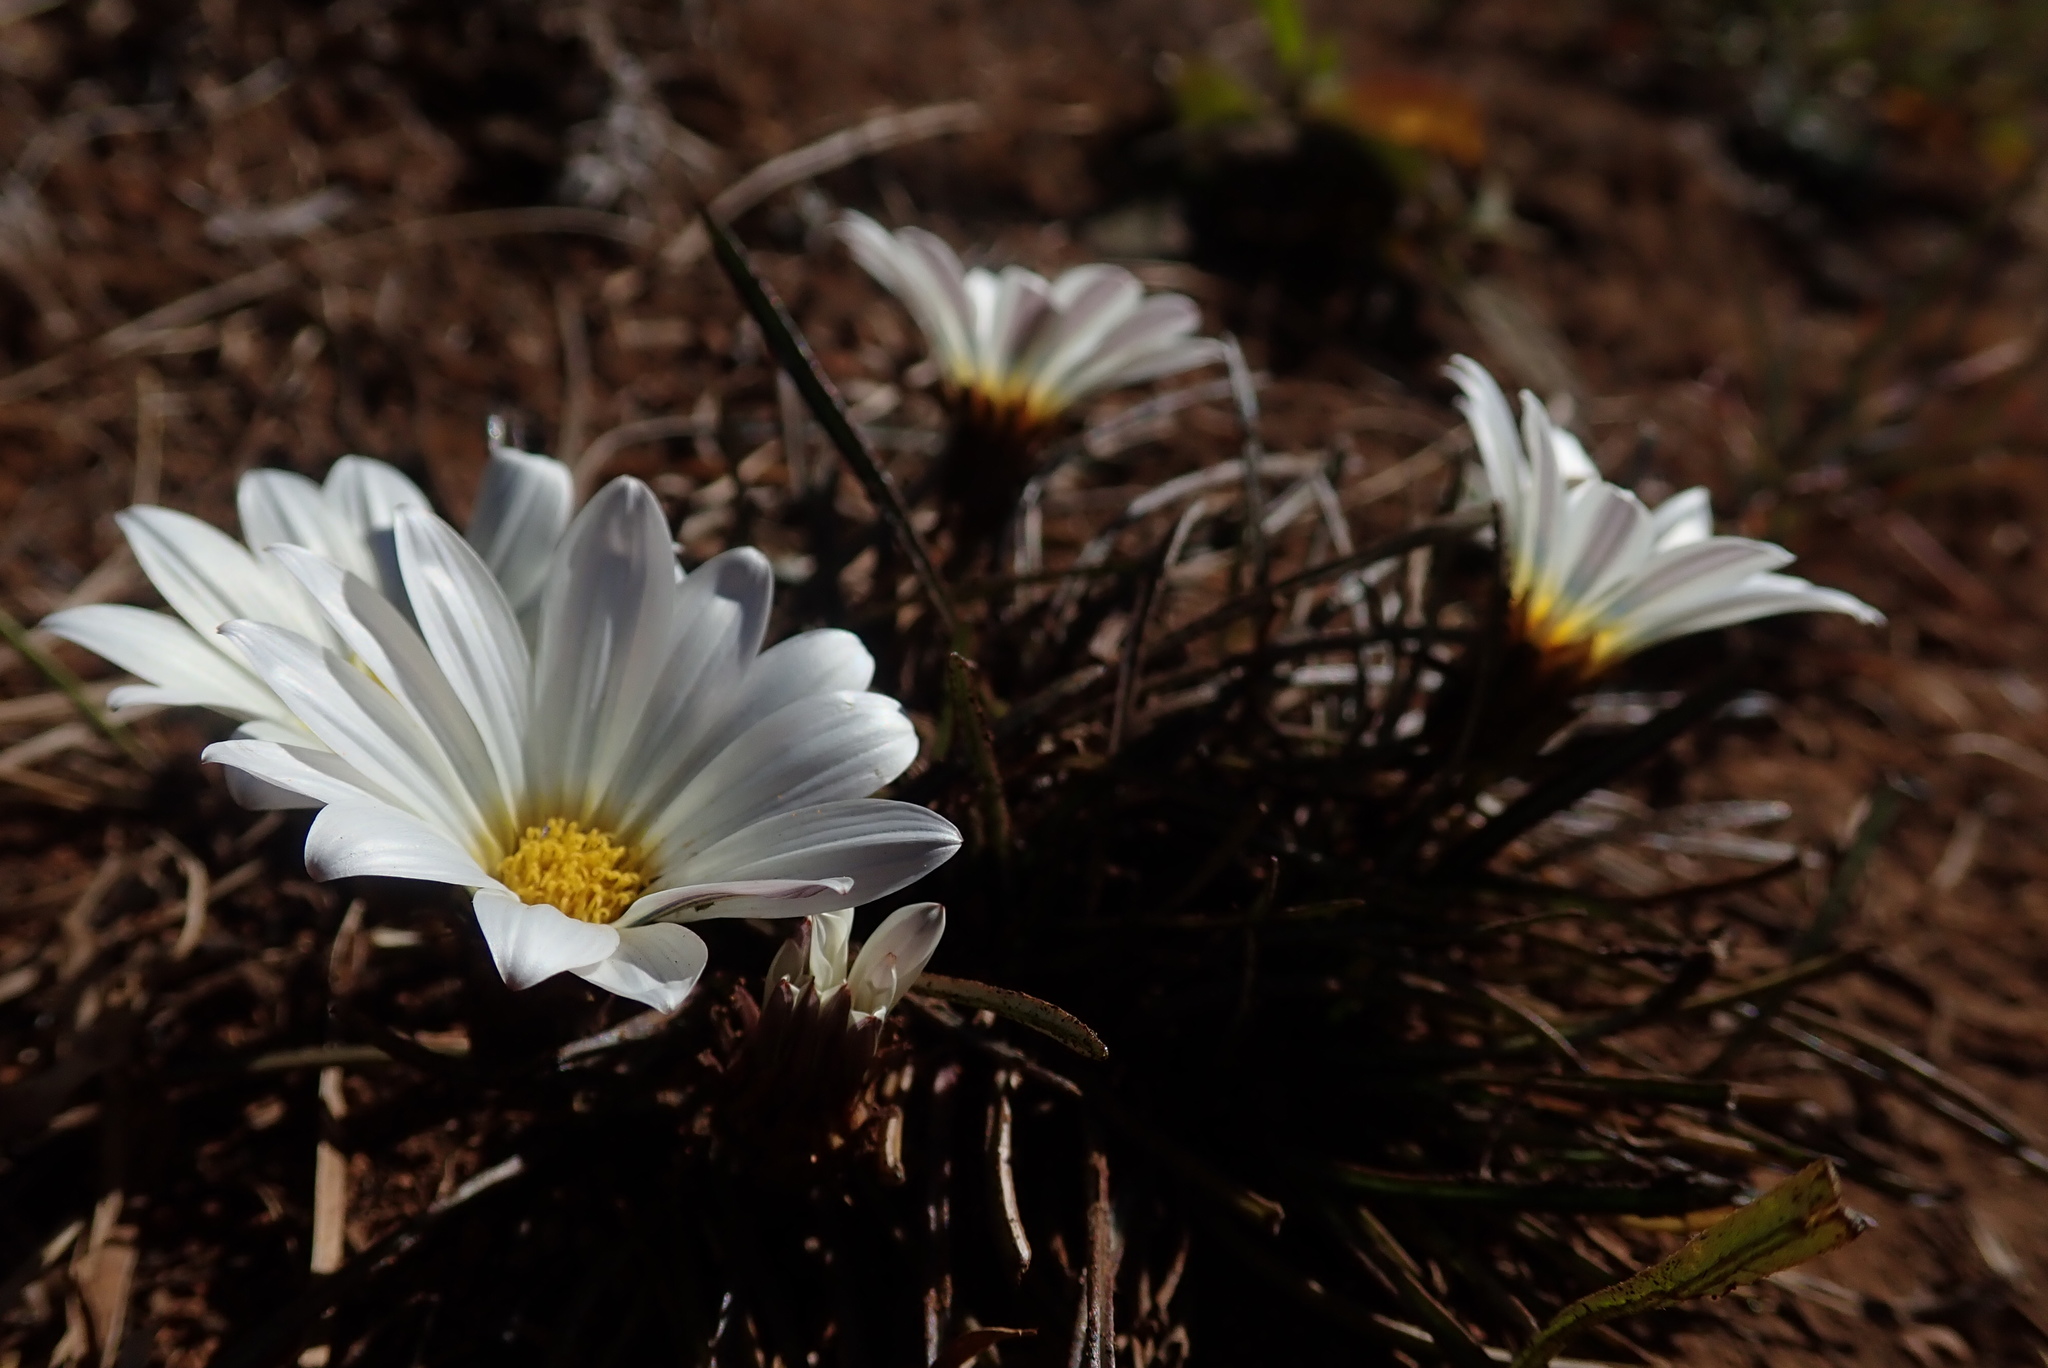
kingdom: Plantae
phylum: Tracheophyta
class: Magnoliopsida
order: Asterales
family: Asteraceae
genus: Gazania
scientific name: Gazania krebsiana
